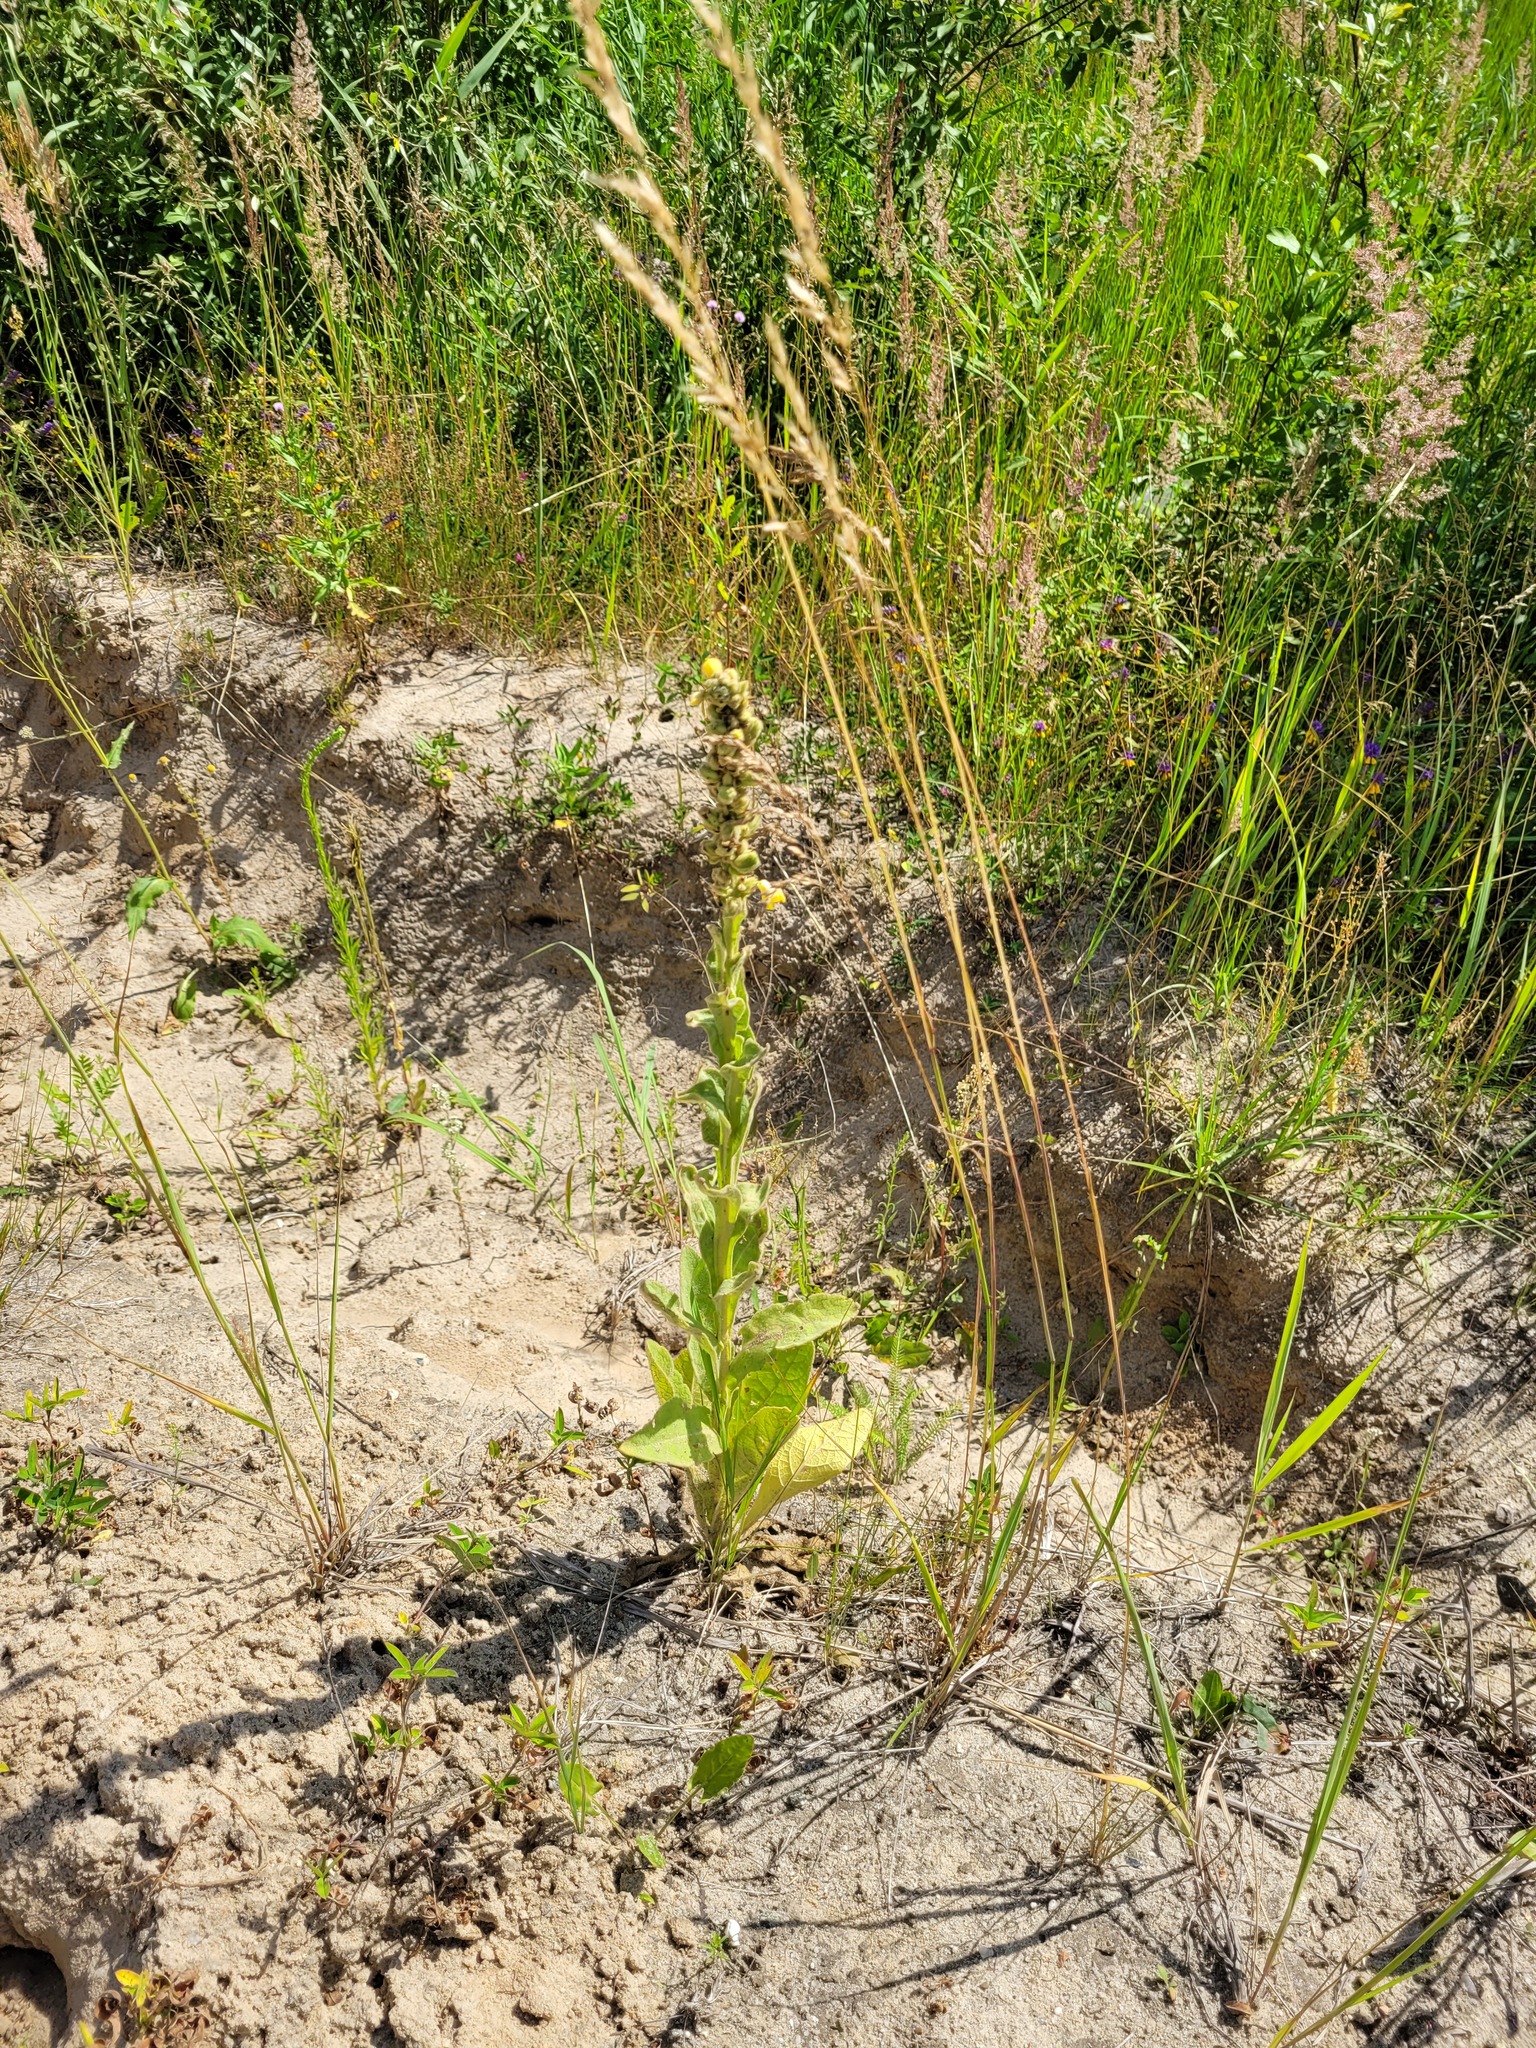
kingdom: Plantae
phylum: Tracheophyta
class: Magnoliopsida
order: Lamiales
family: Scrophulariaceae
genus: Verbascum
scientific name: Verbascum thapsus
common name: Common mullein
